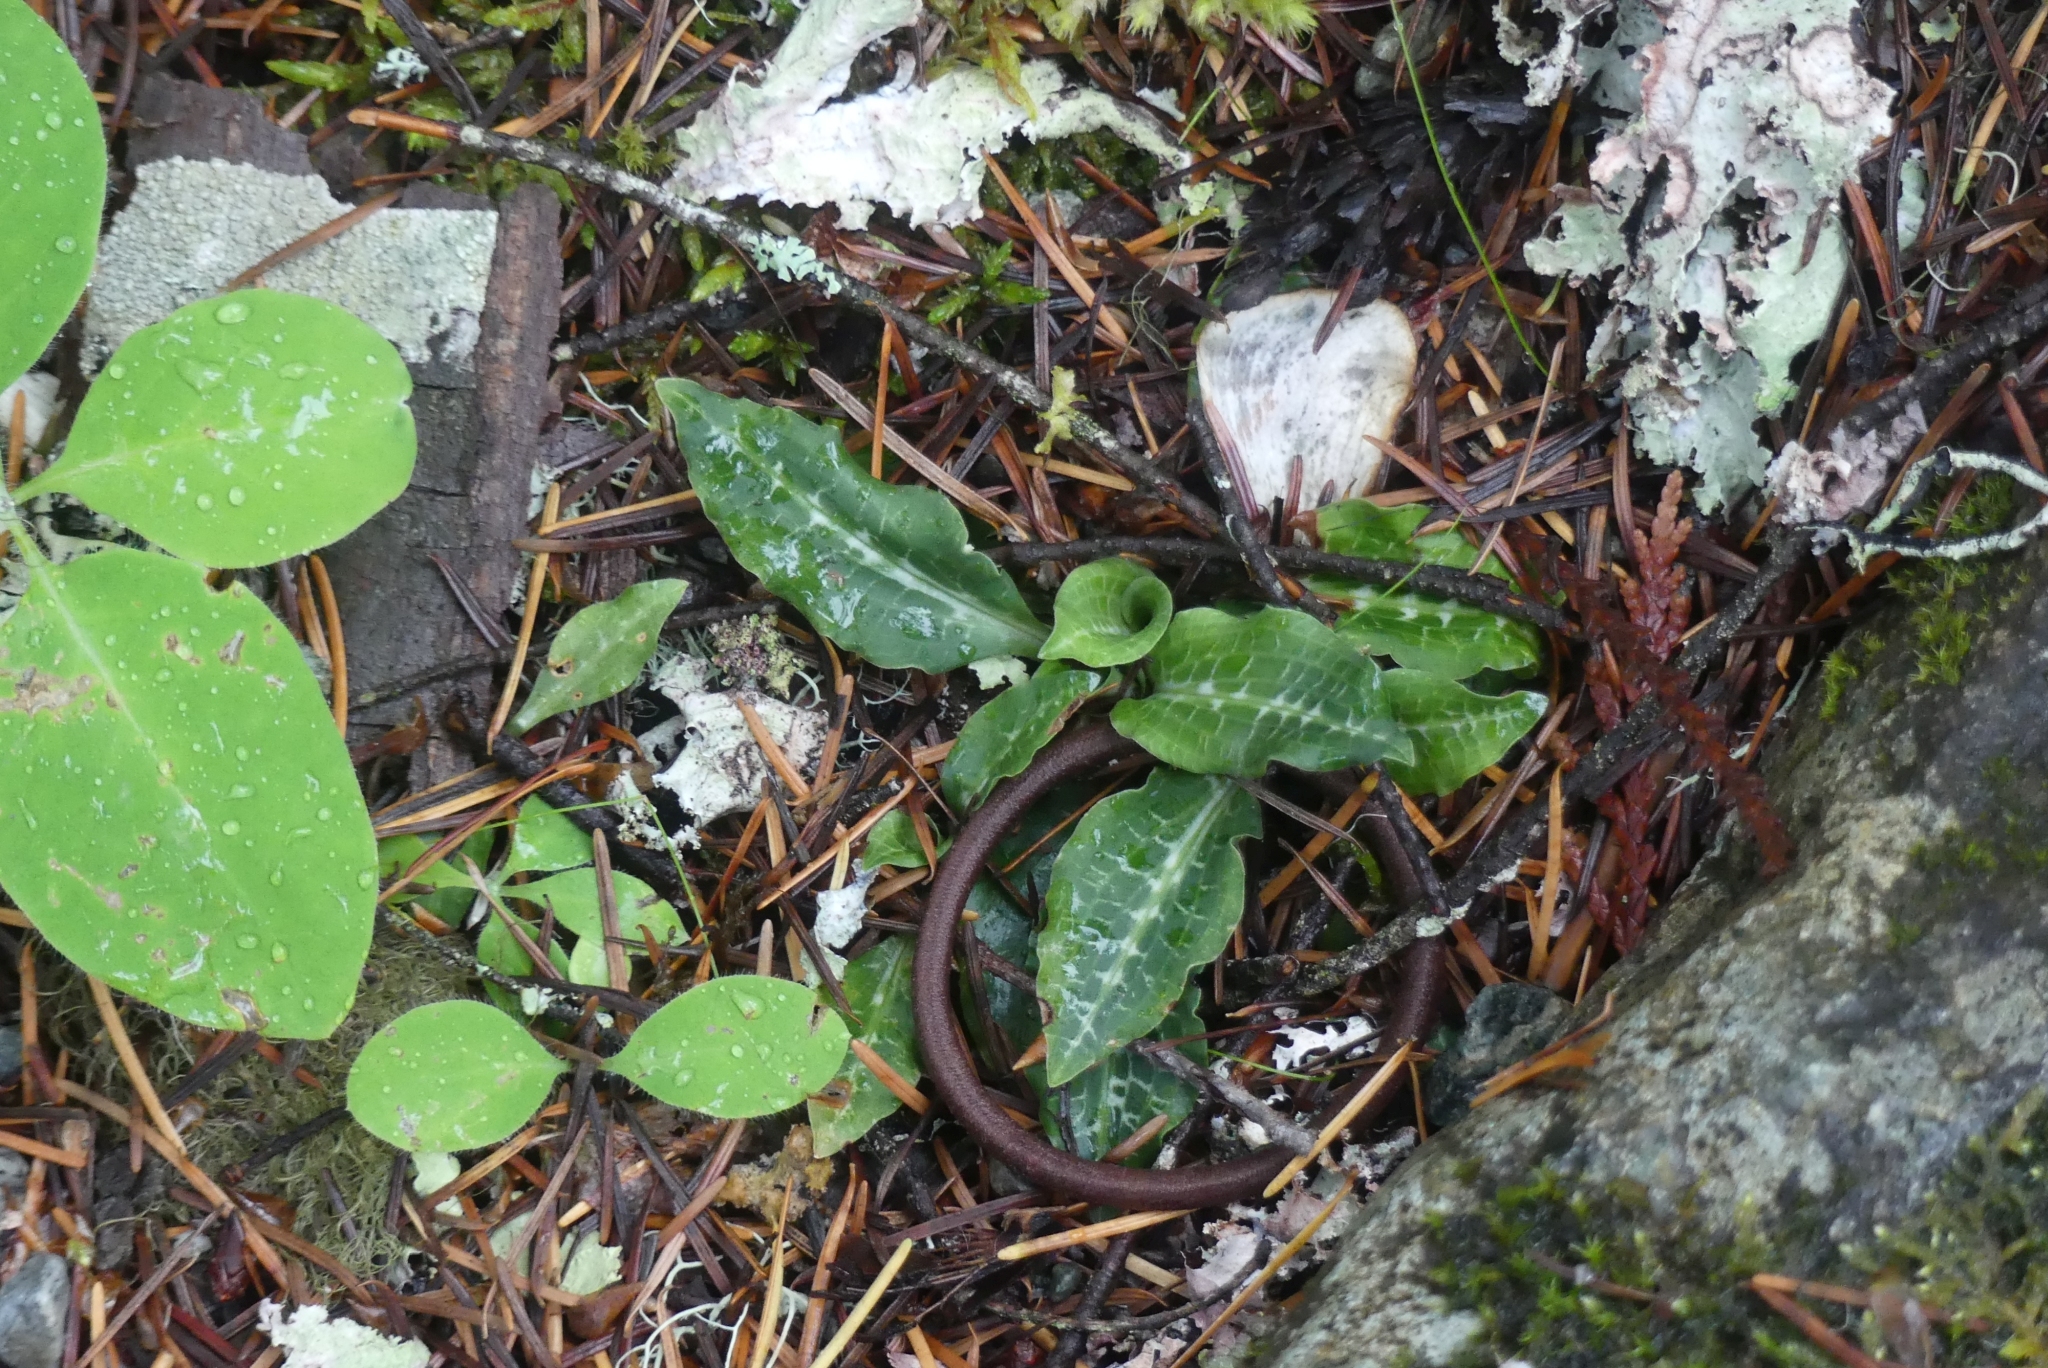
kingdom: Plantae
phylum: Tracheophyta
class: Liliopsida
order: Asparagales
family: Orchidaceae
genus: Goodyera
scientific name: Goodyera oblongifolia
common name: Giant rattlesnake-plantain
